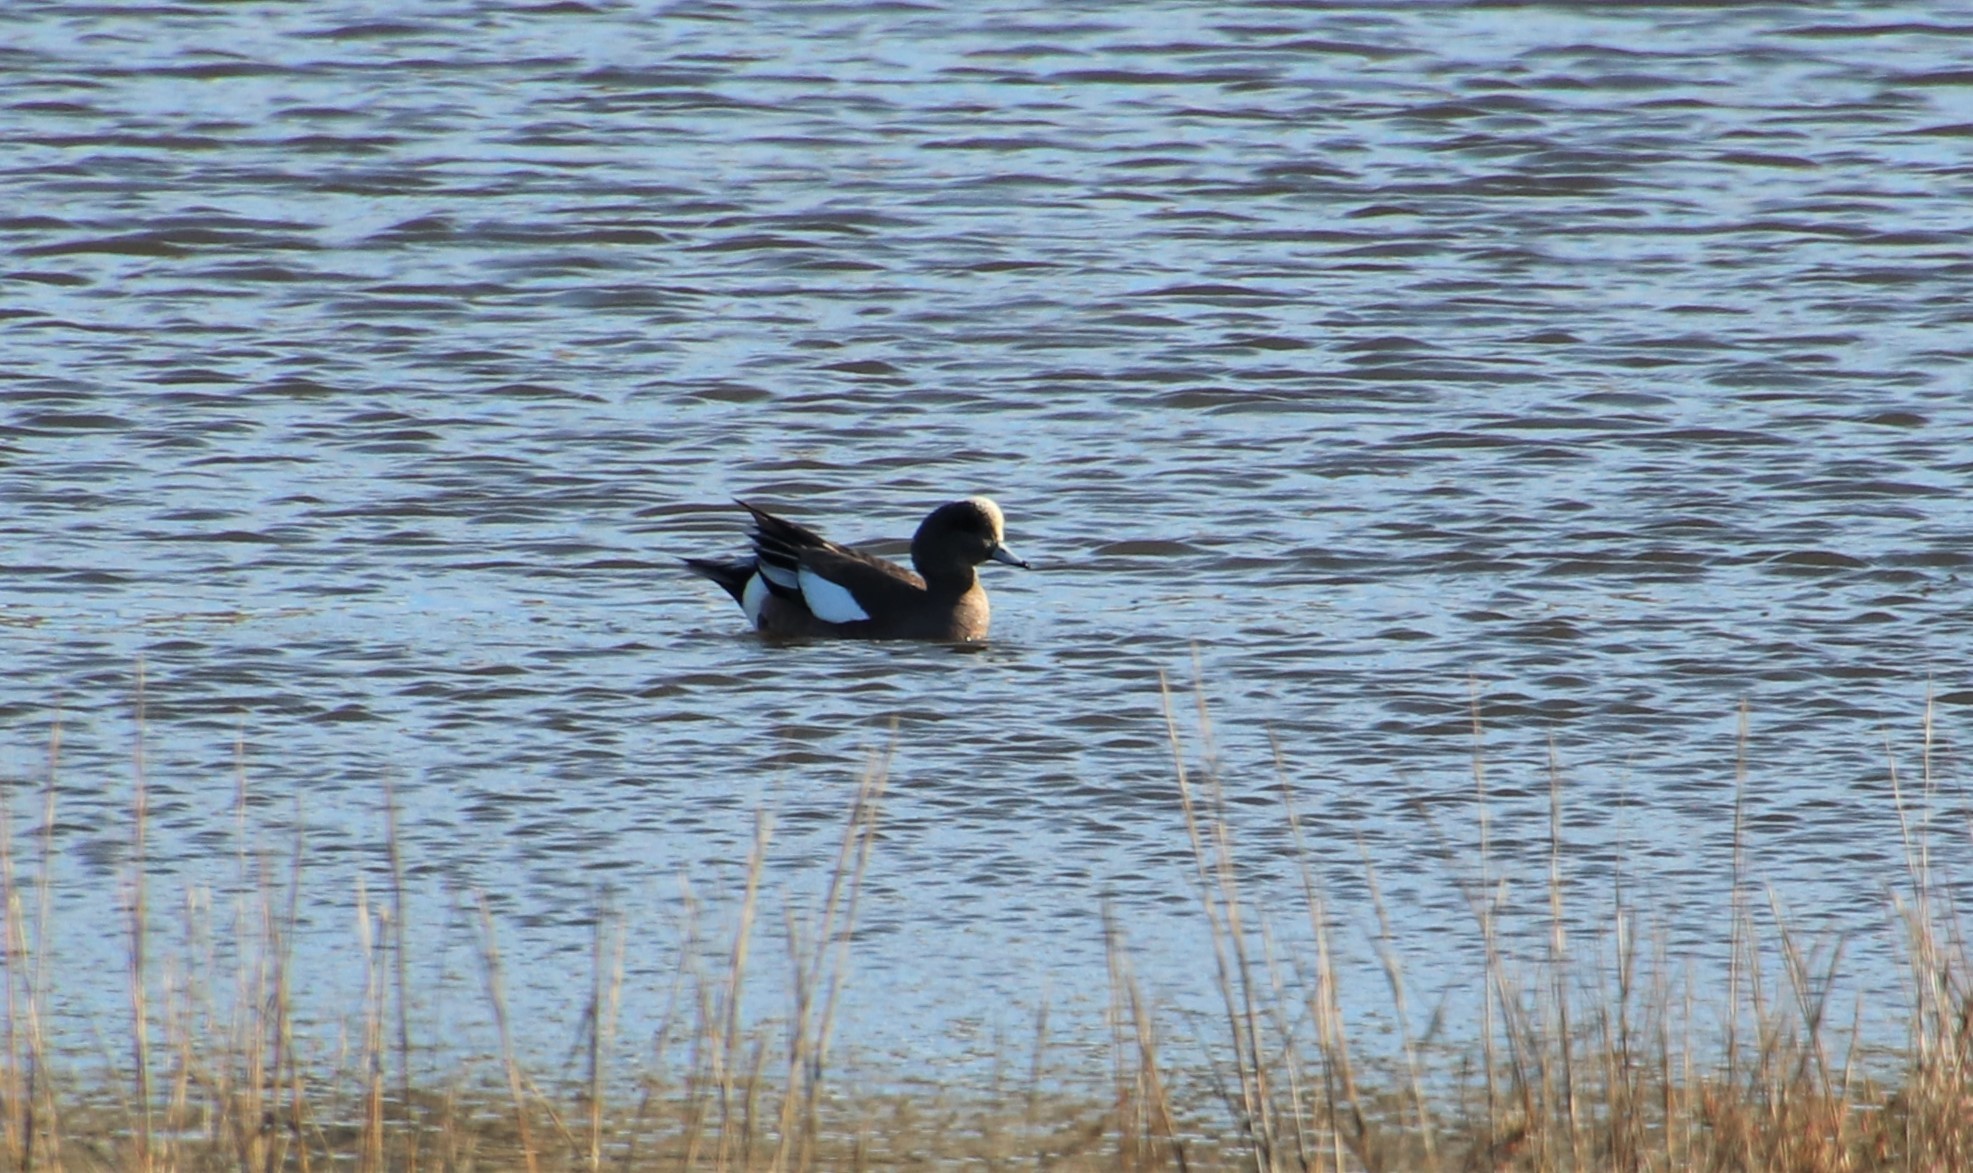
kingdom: Animalia
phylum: Chordata
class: Aves
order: Anseriformes
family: Anatidae
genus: Mareca
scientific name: Mareca americana
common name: American wigeon
